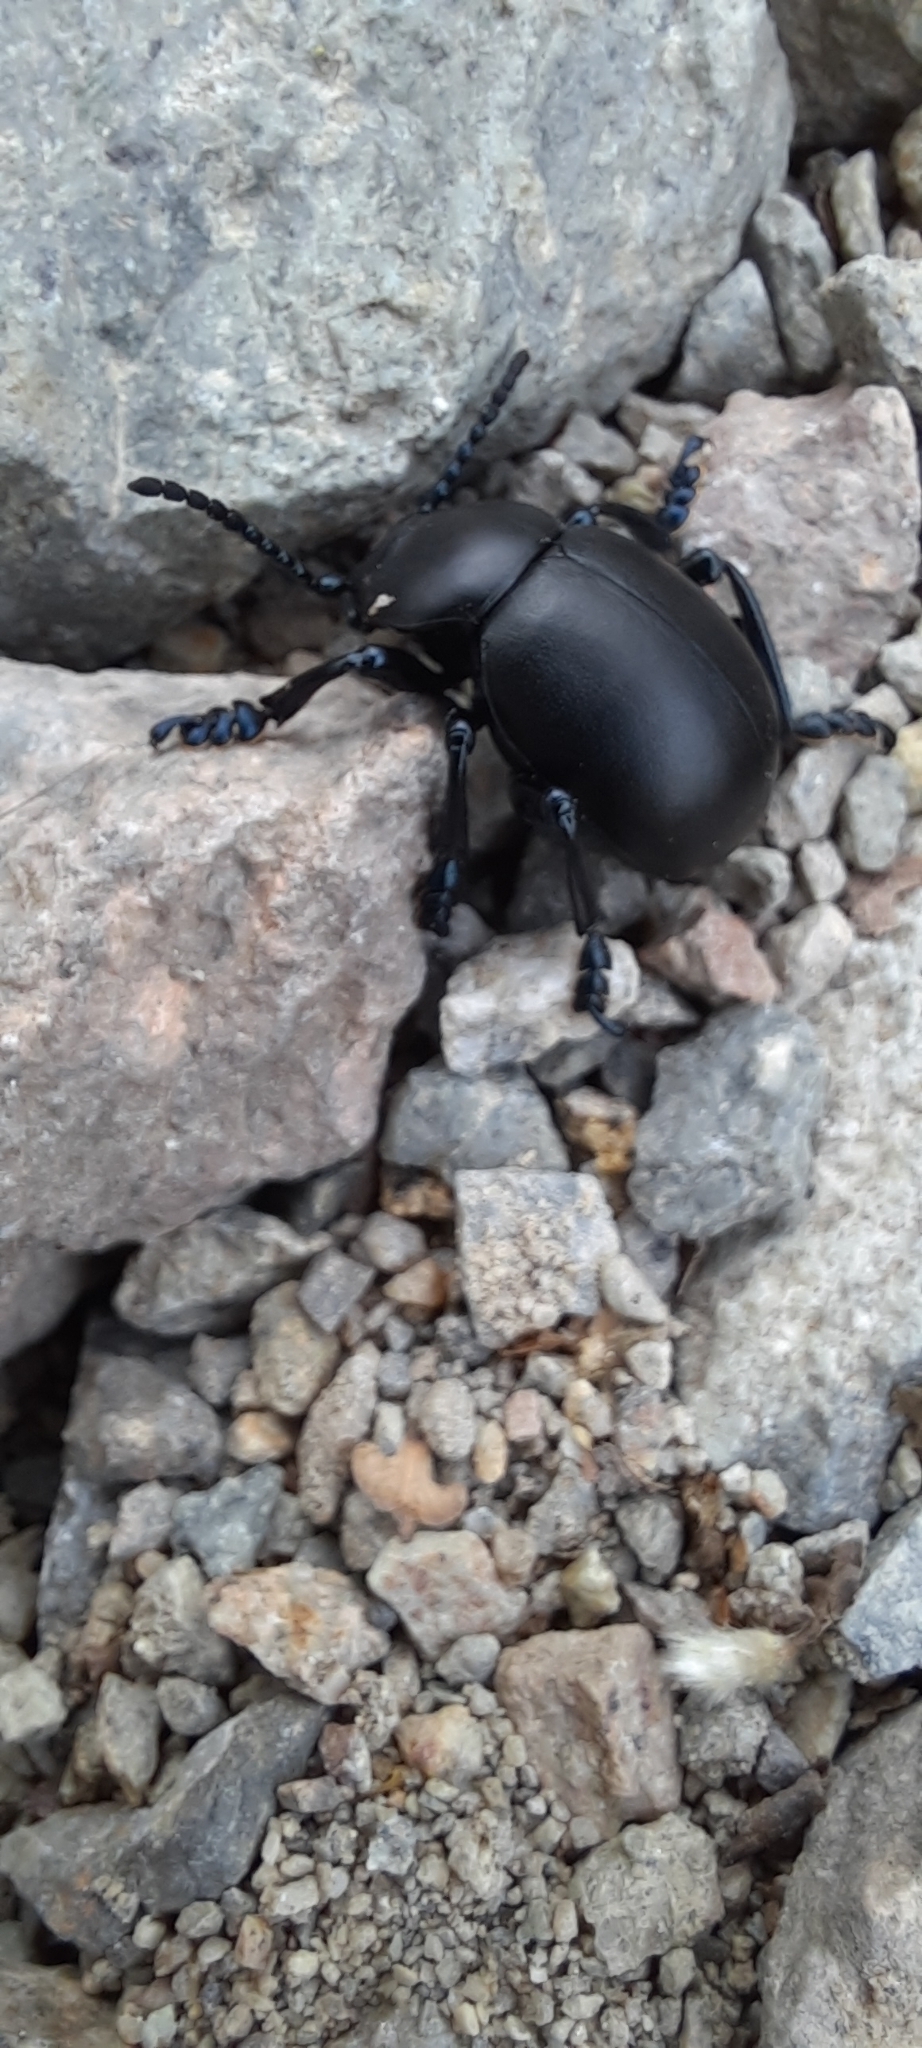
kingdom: Animalia
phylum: Arthropoda
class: Insecta
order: Coleoptera
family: Chrysomelidae
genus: Timarcha
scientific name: Timarcha tenebricosa
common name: Bloody-nosed beetle
